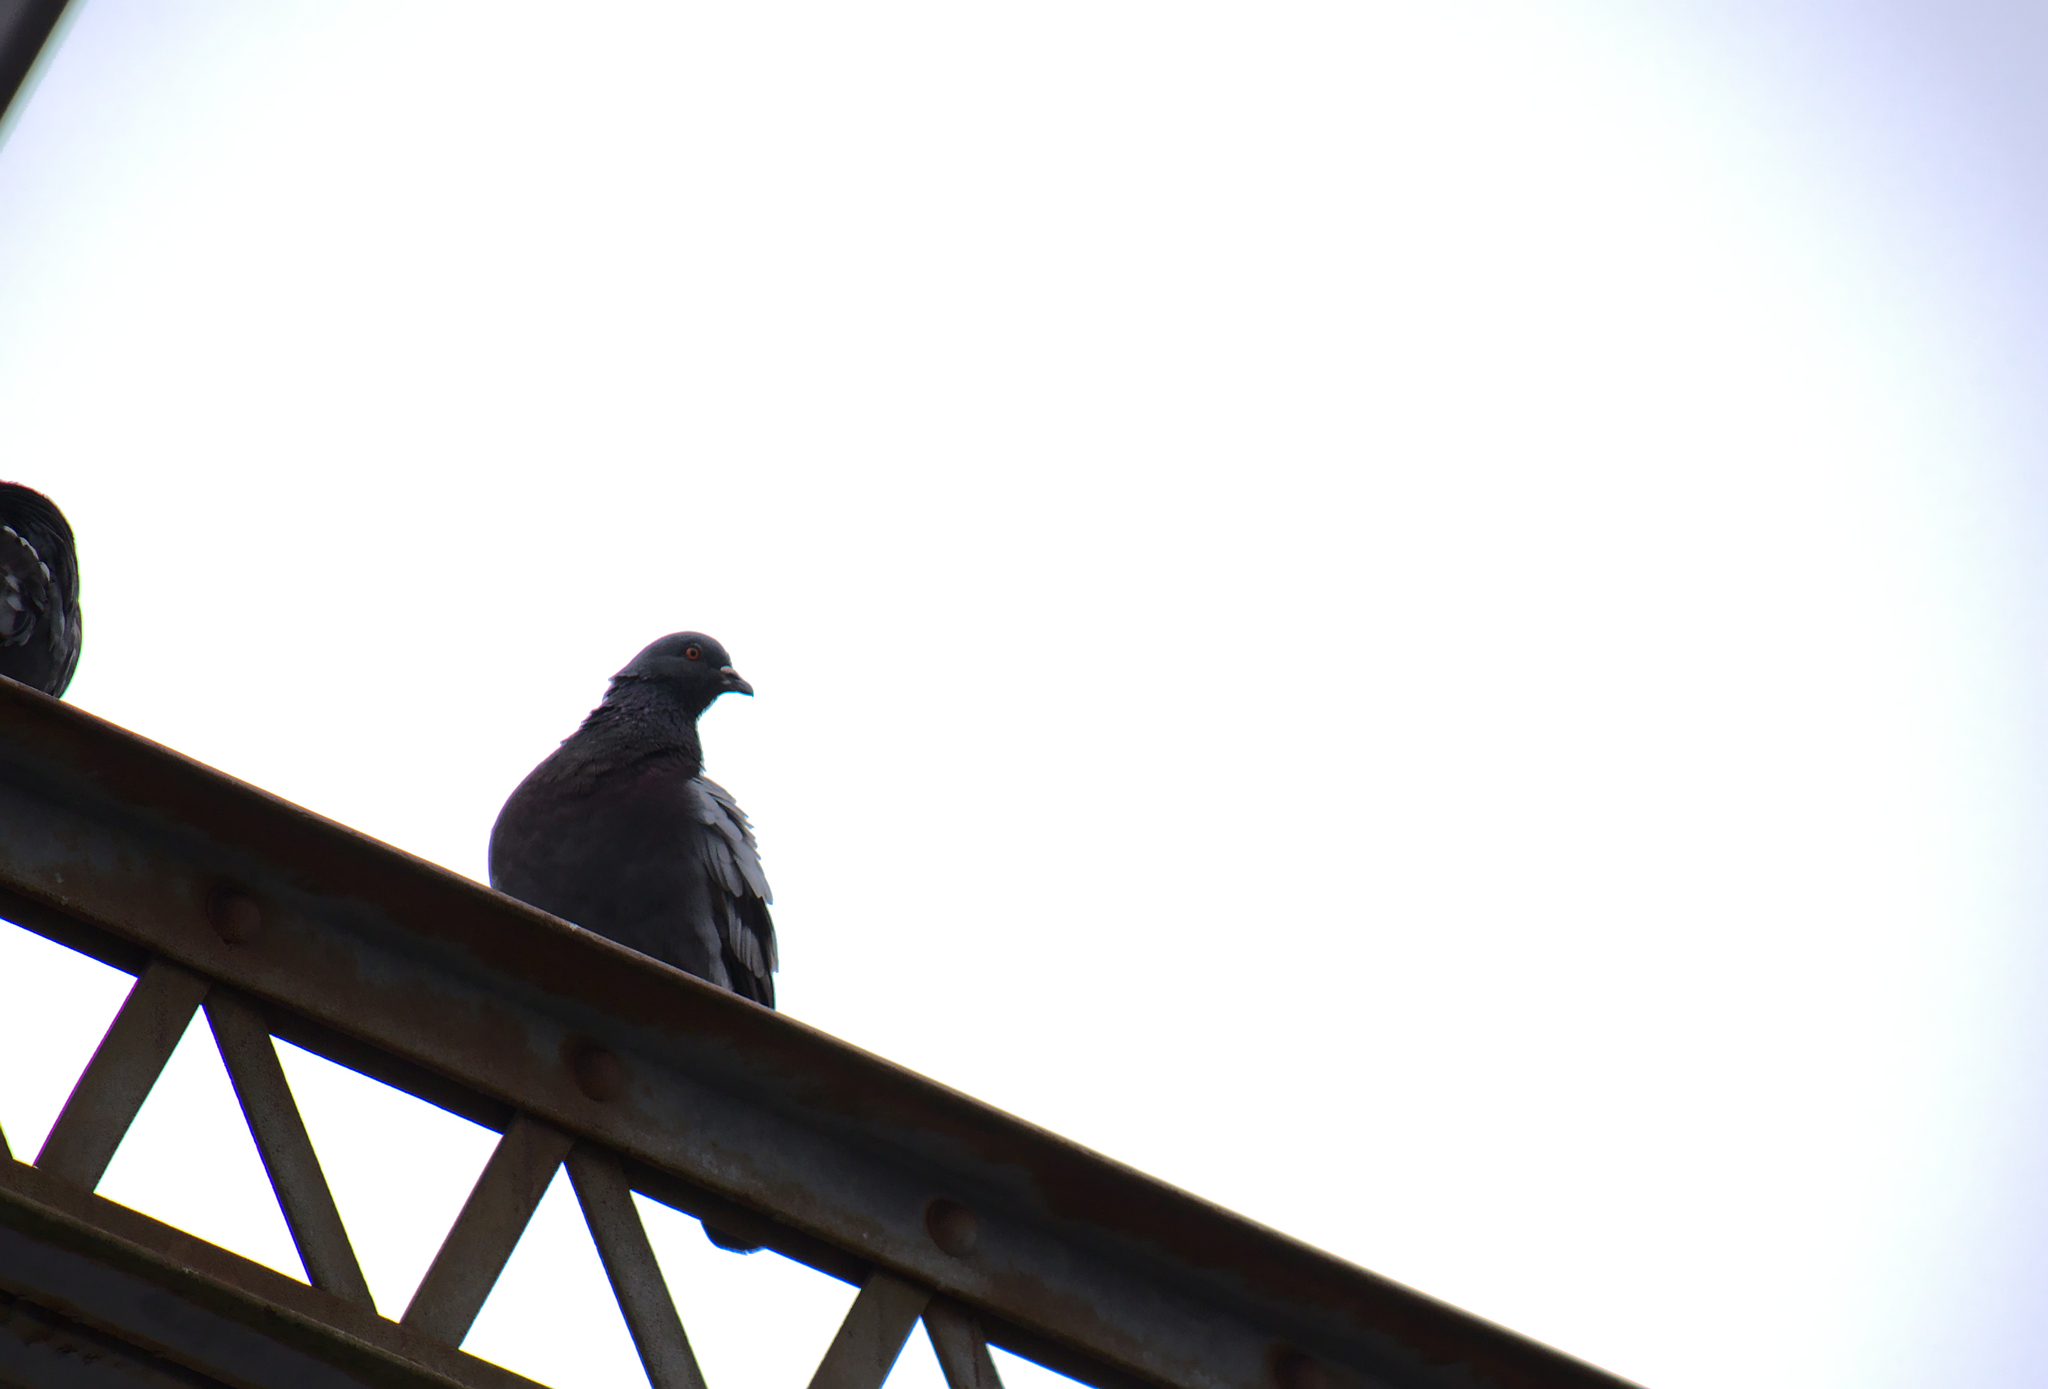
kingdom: Animalia
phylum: Chordata
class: Aves
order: Columbiformes
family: Columbidae
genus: Columba
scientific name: Columba livia
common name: Rock pigeon
